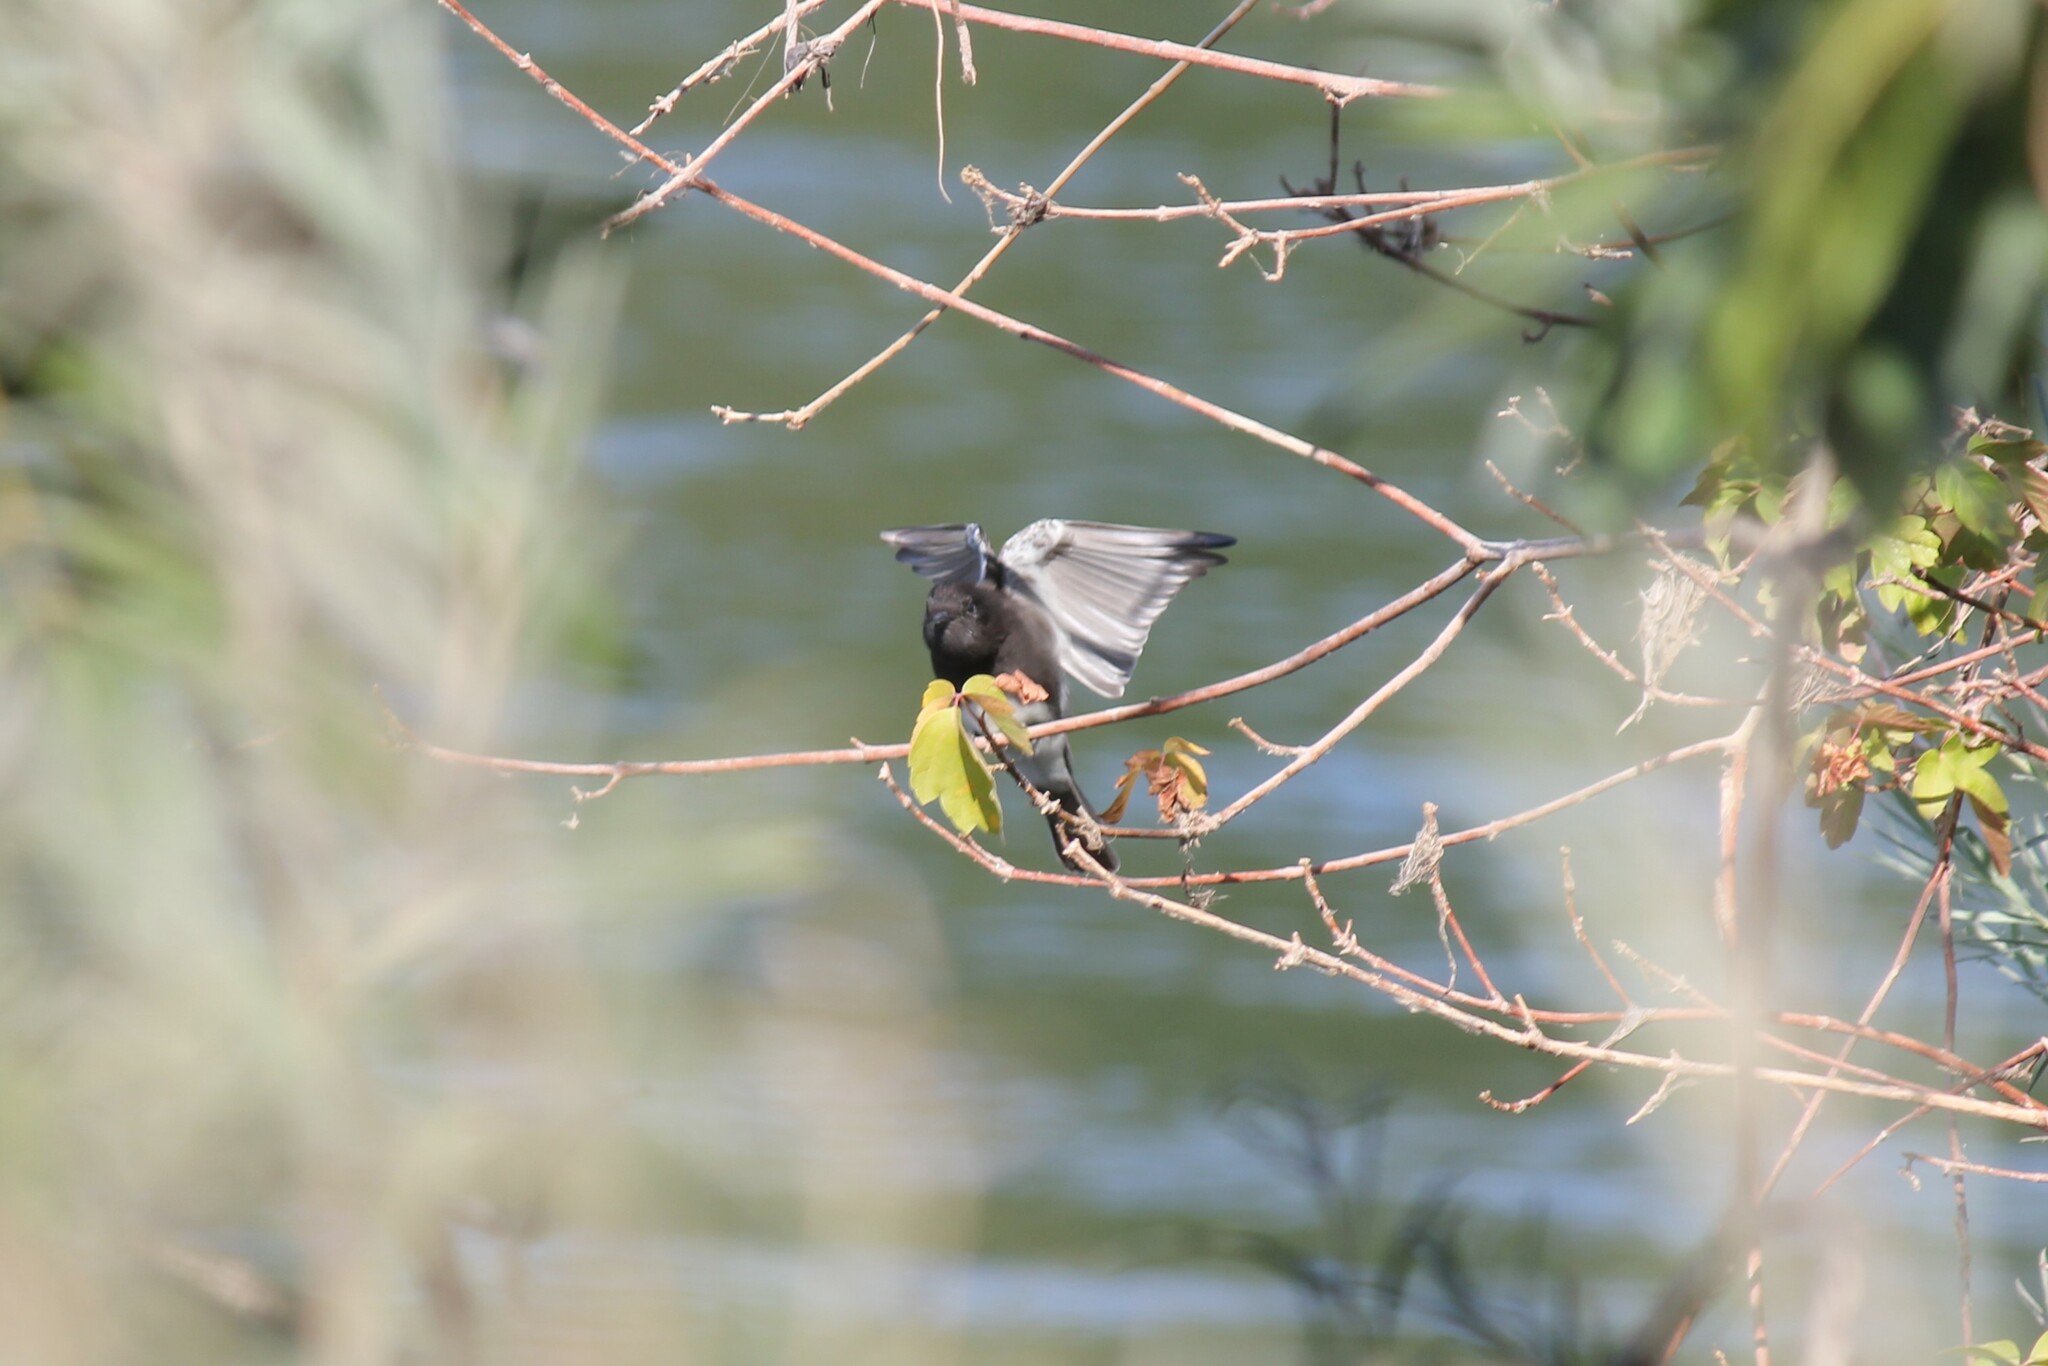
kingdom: Animalia
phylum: Chordata
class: Aves
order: Passeriformes
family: Tyrannidae
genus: Sayornis
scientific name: Sayornis nigricans
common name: Black phoebe
